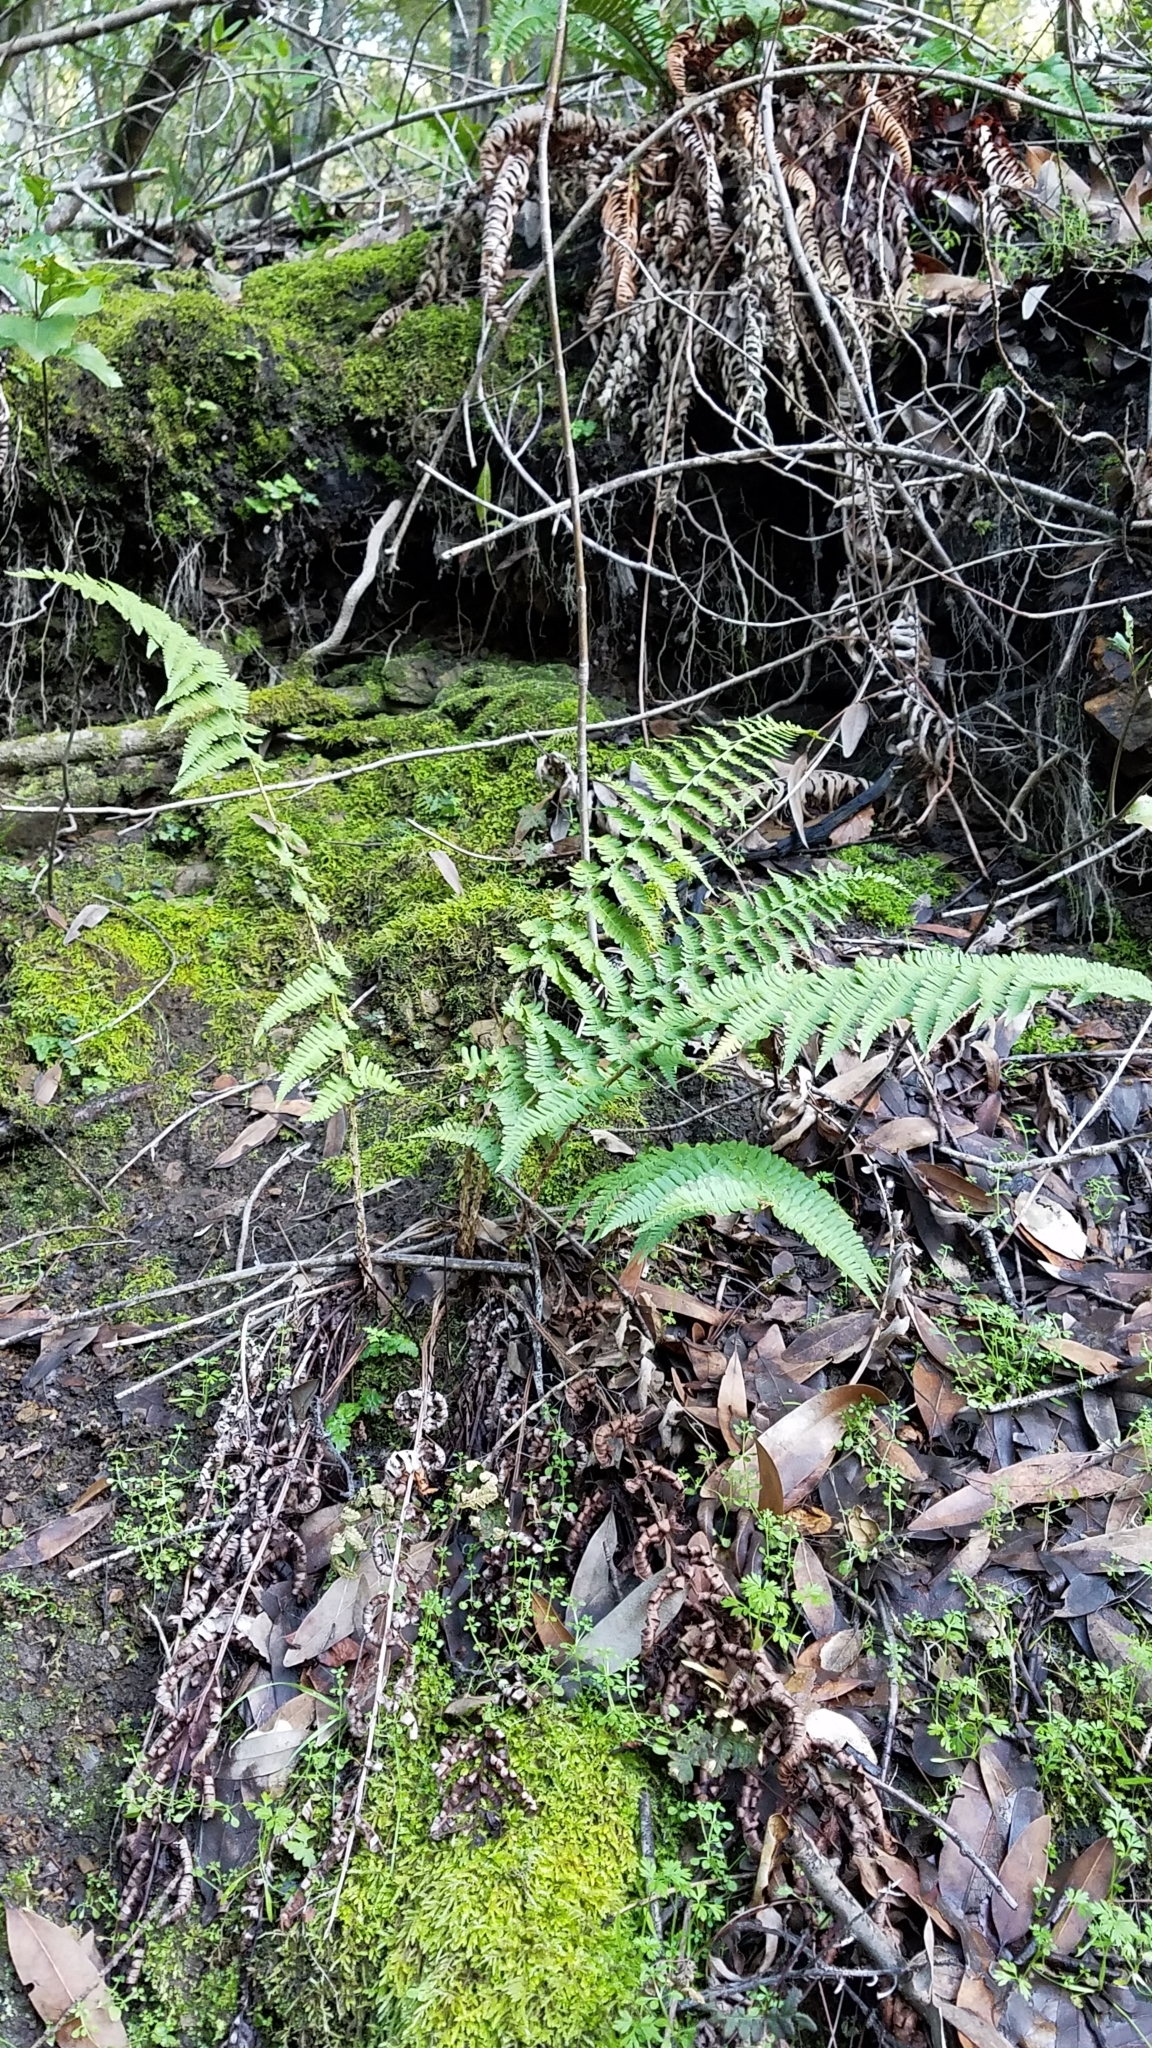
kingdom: Plantae
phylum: Tracheophyta
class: Polypodiopsida
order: Polypodiales
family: Dryopteridaceae
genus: Dryopteris
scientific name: Dryopteris arguta
